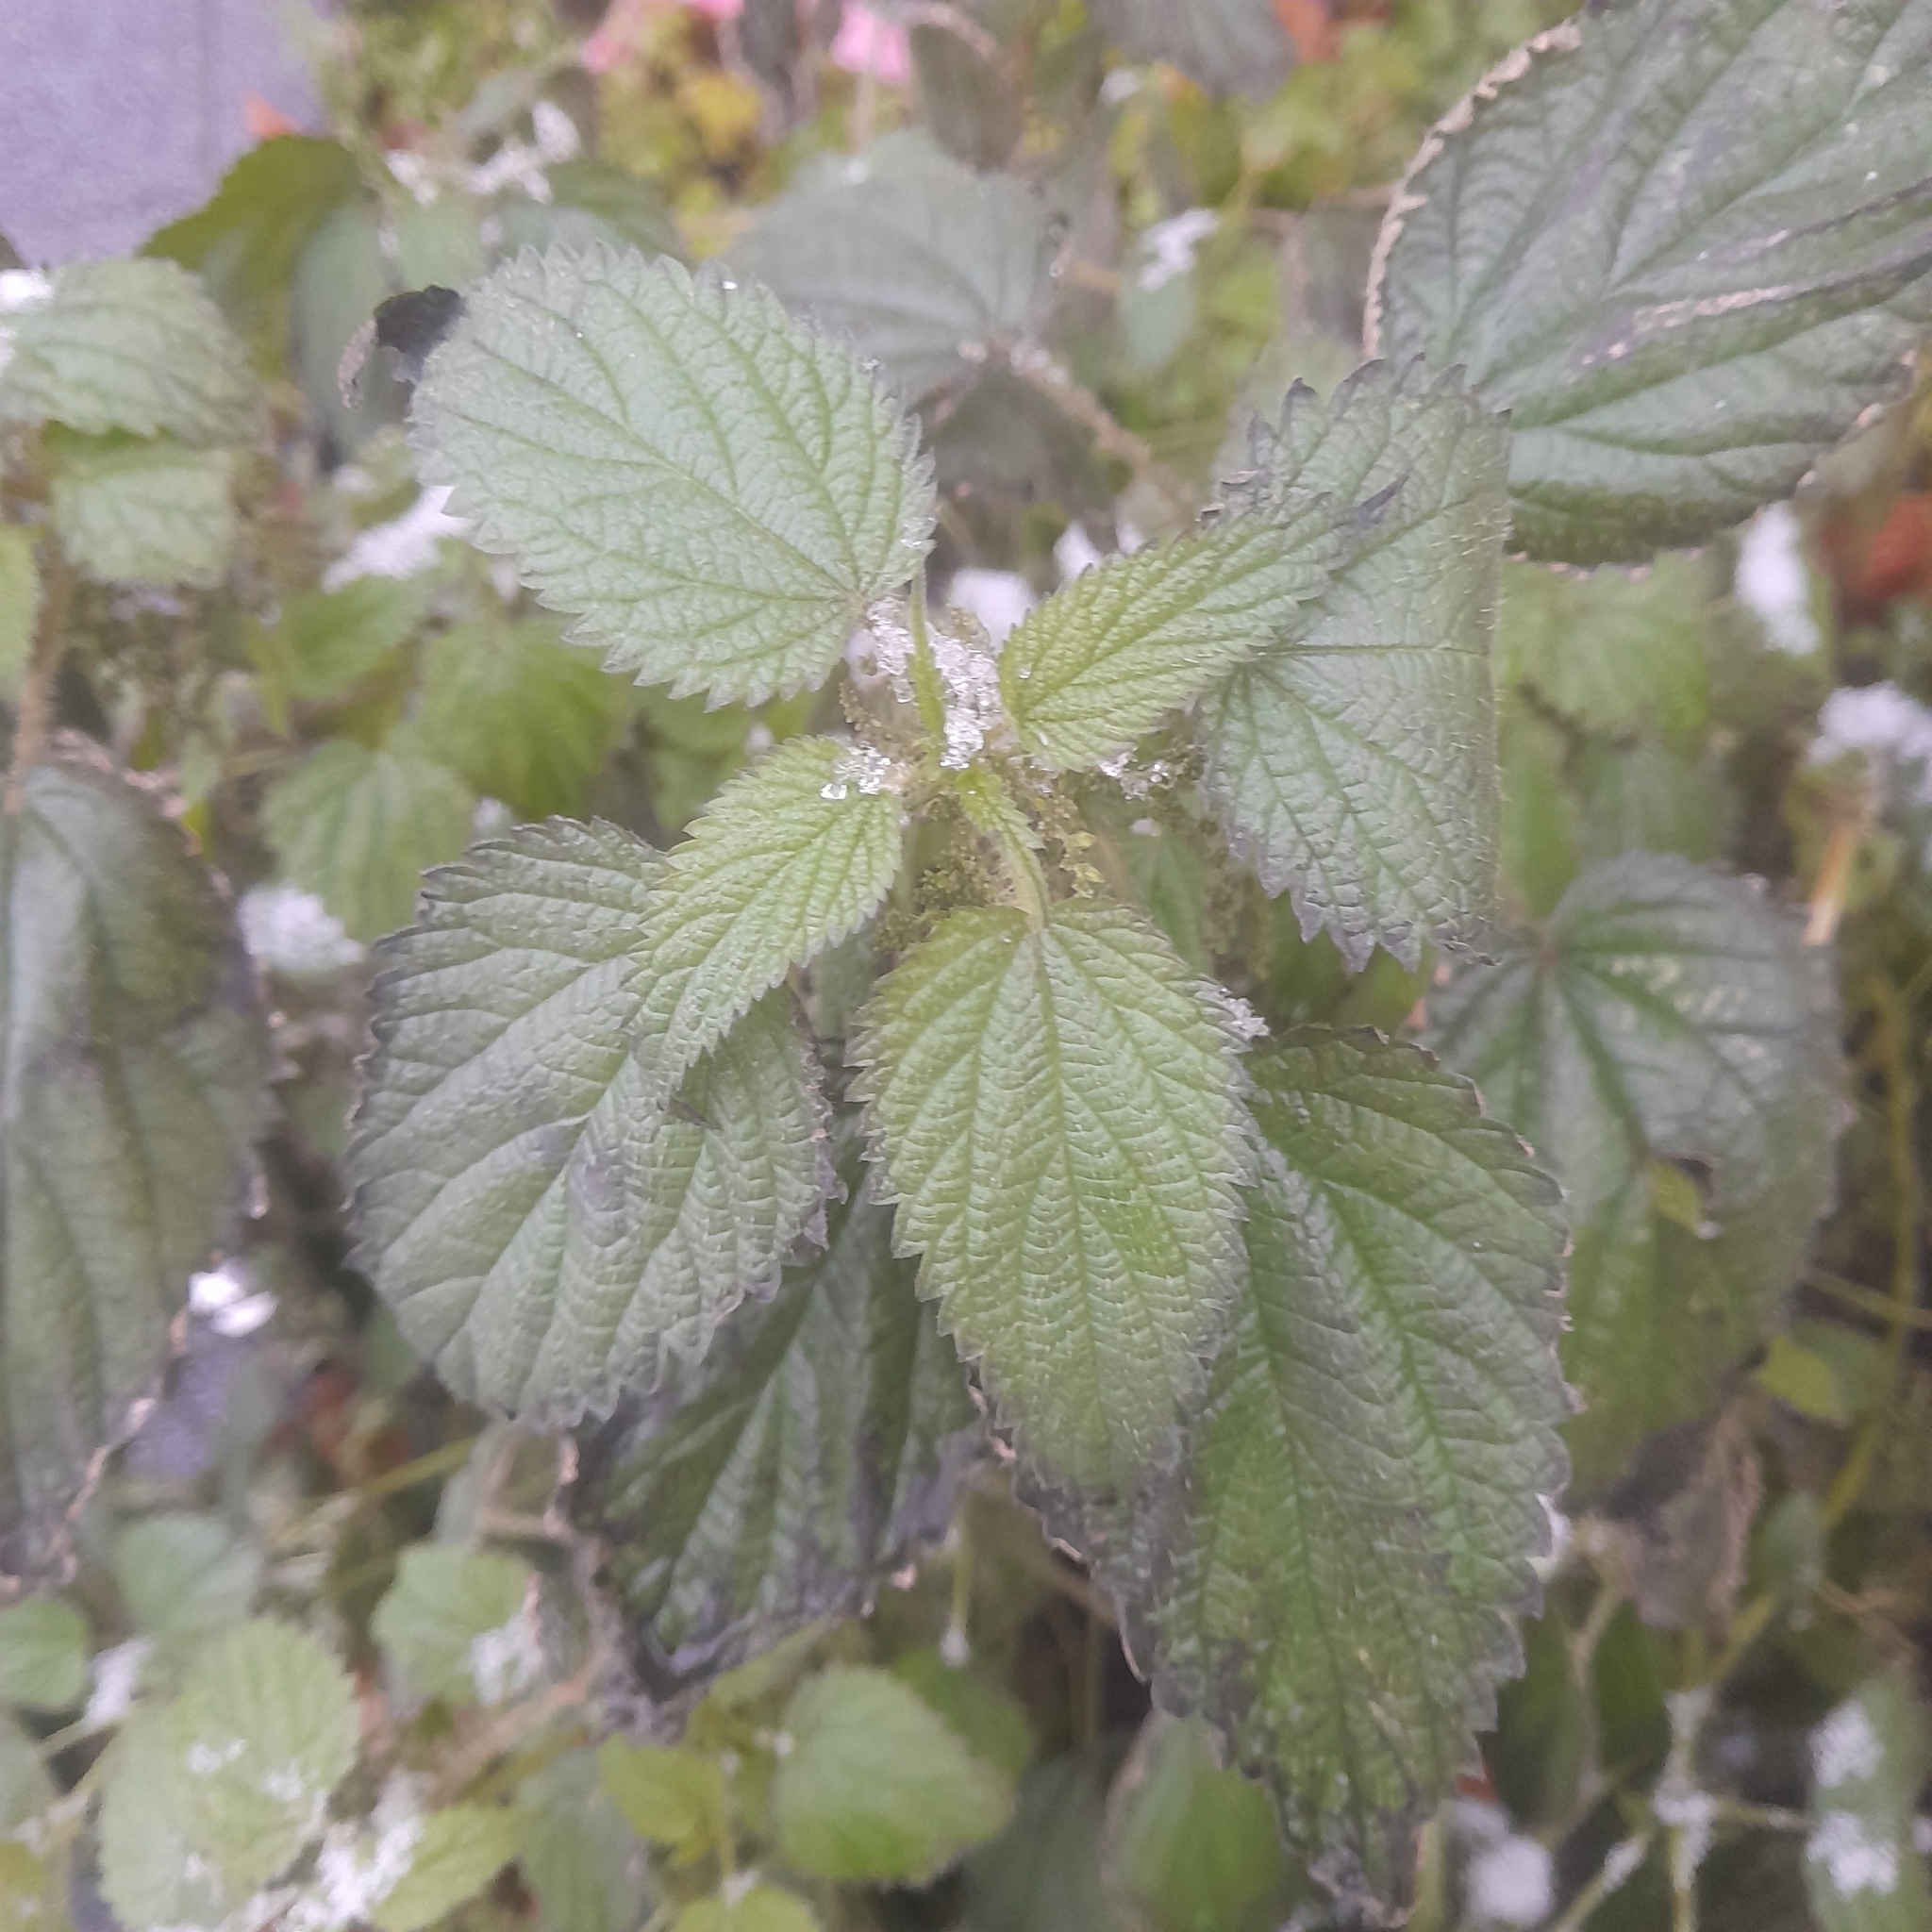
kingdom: Plantae
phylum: Tracheophyta
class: Magnoliopsida
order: Rosales
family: Urticaceae
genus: Urtica
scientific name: Urtica dioica
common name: Common nettle
